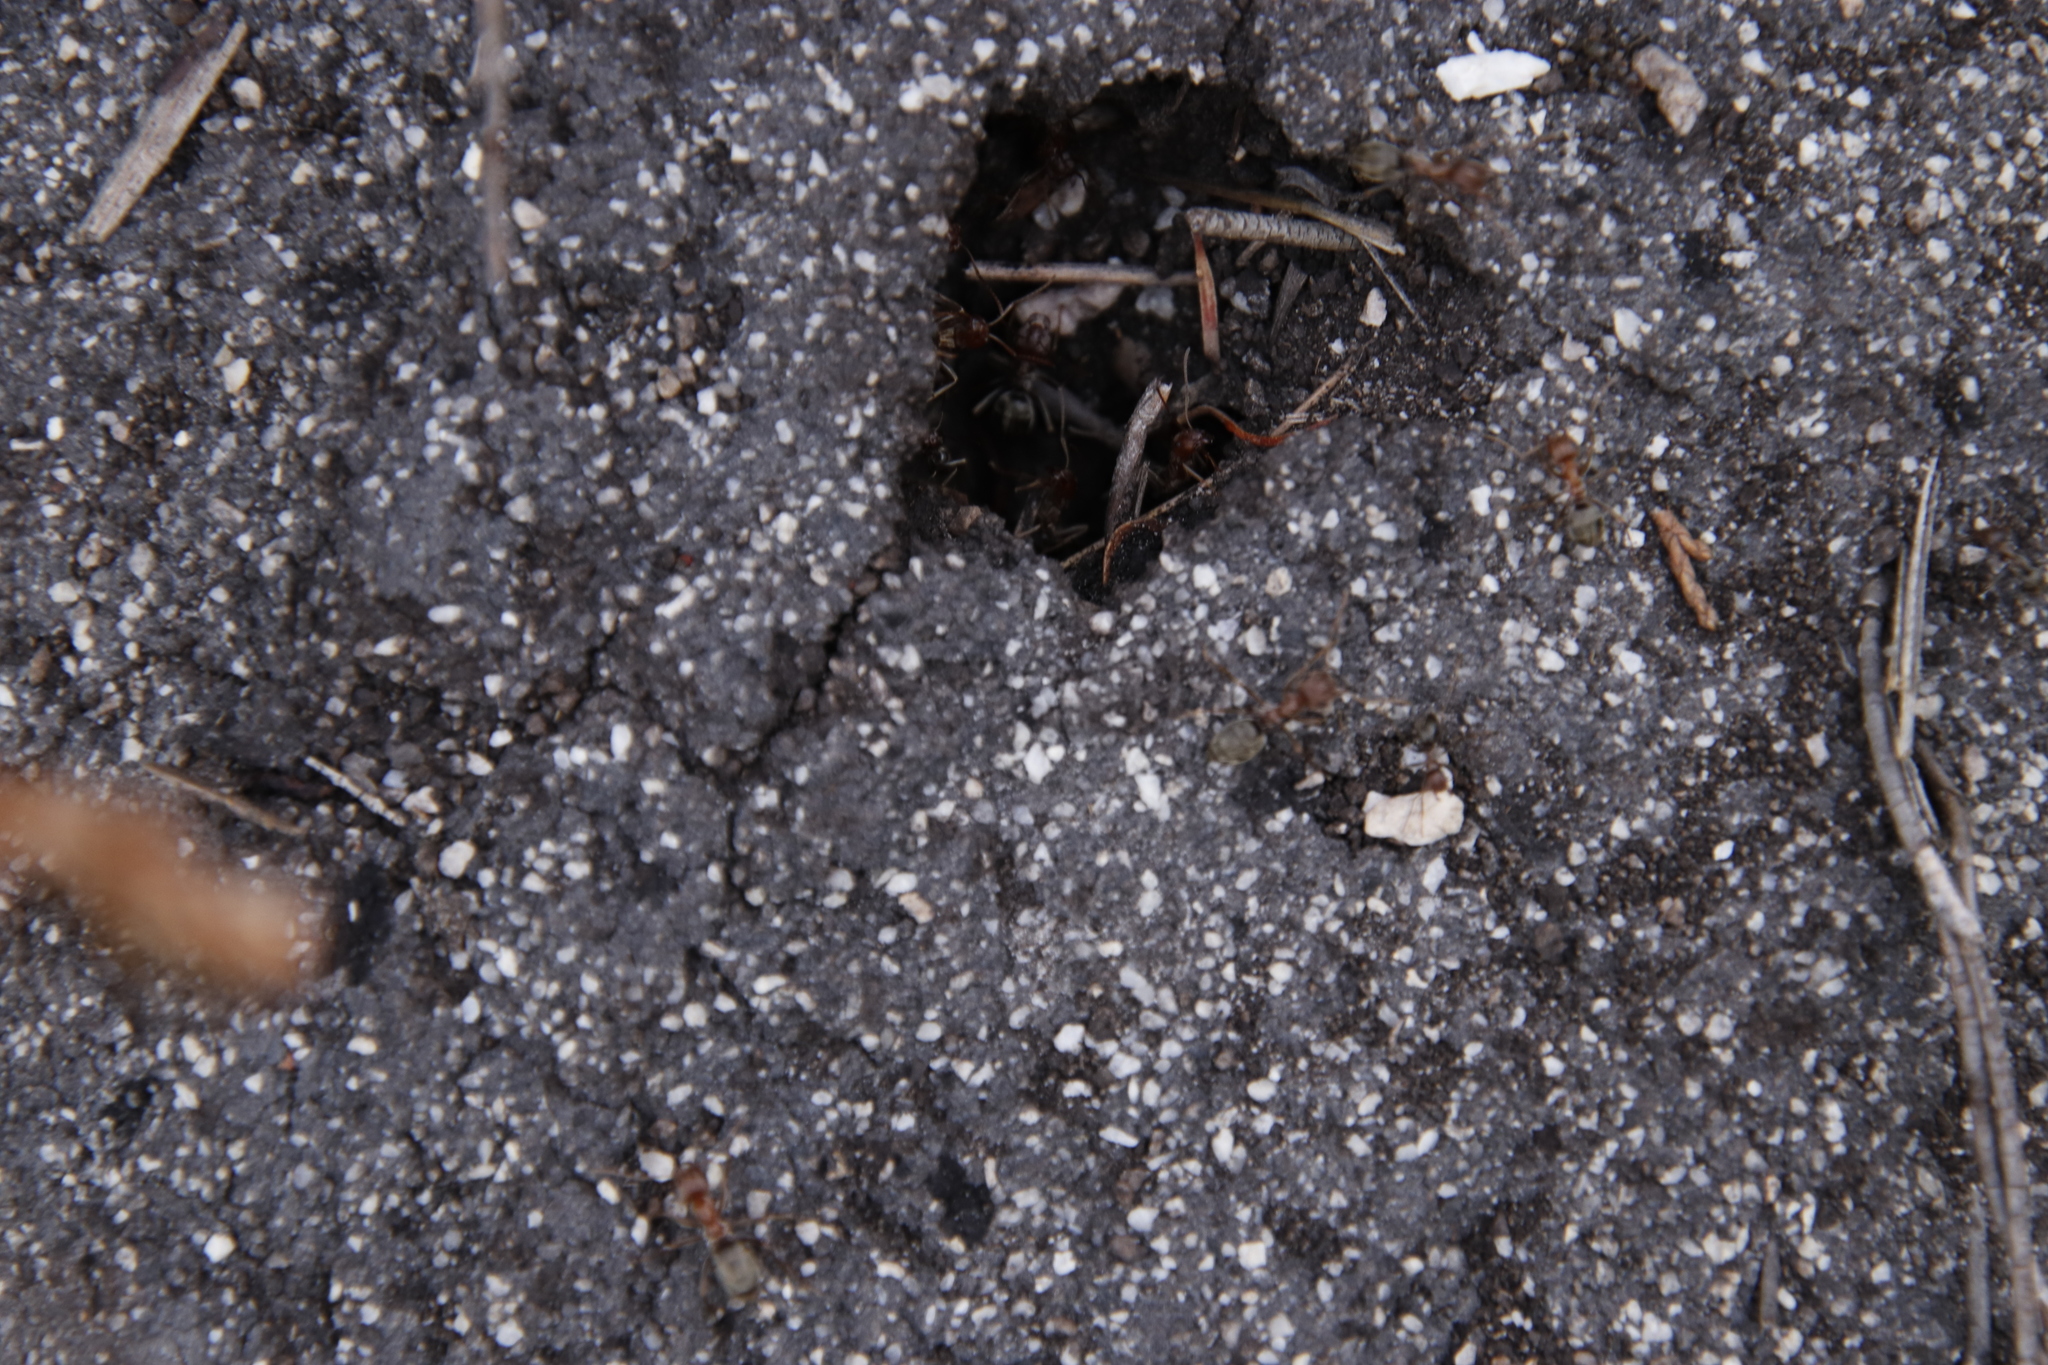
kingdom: Animalia
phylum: Arthropoda
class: Insecta
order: Hymenoptera
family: Formicidae
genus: Anoplolepis
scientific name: Anoplolepis custodiens
